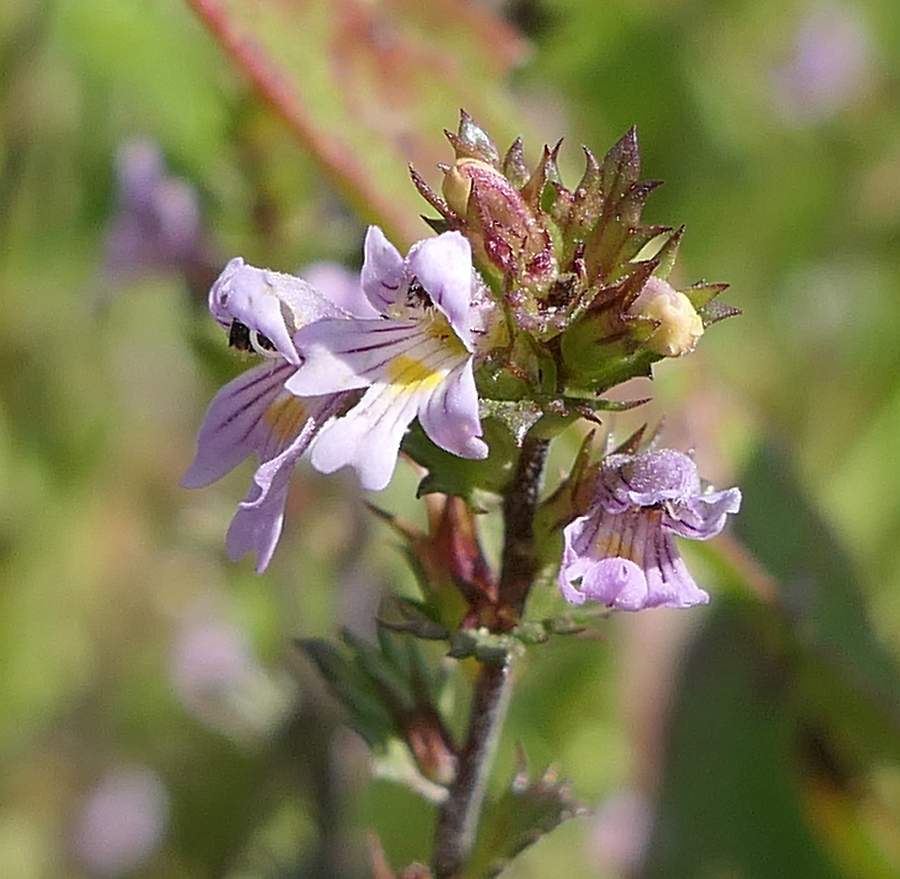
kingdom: Plantae
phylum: Tracheophyta
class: Magnoliopsida
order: Lamiales
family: Orobanchaceae
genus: Euphrasia
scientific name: Euphrasia stricta
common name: Drug eyebright
